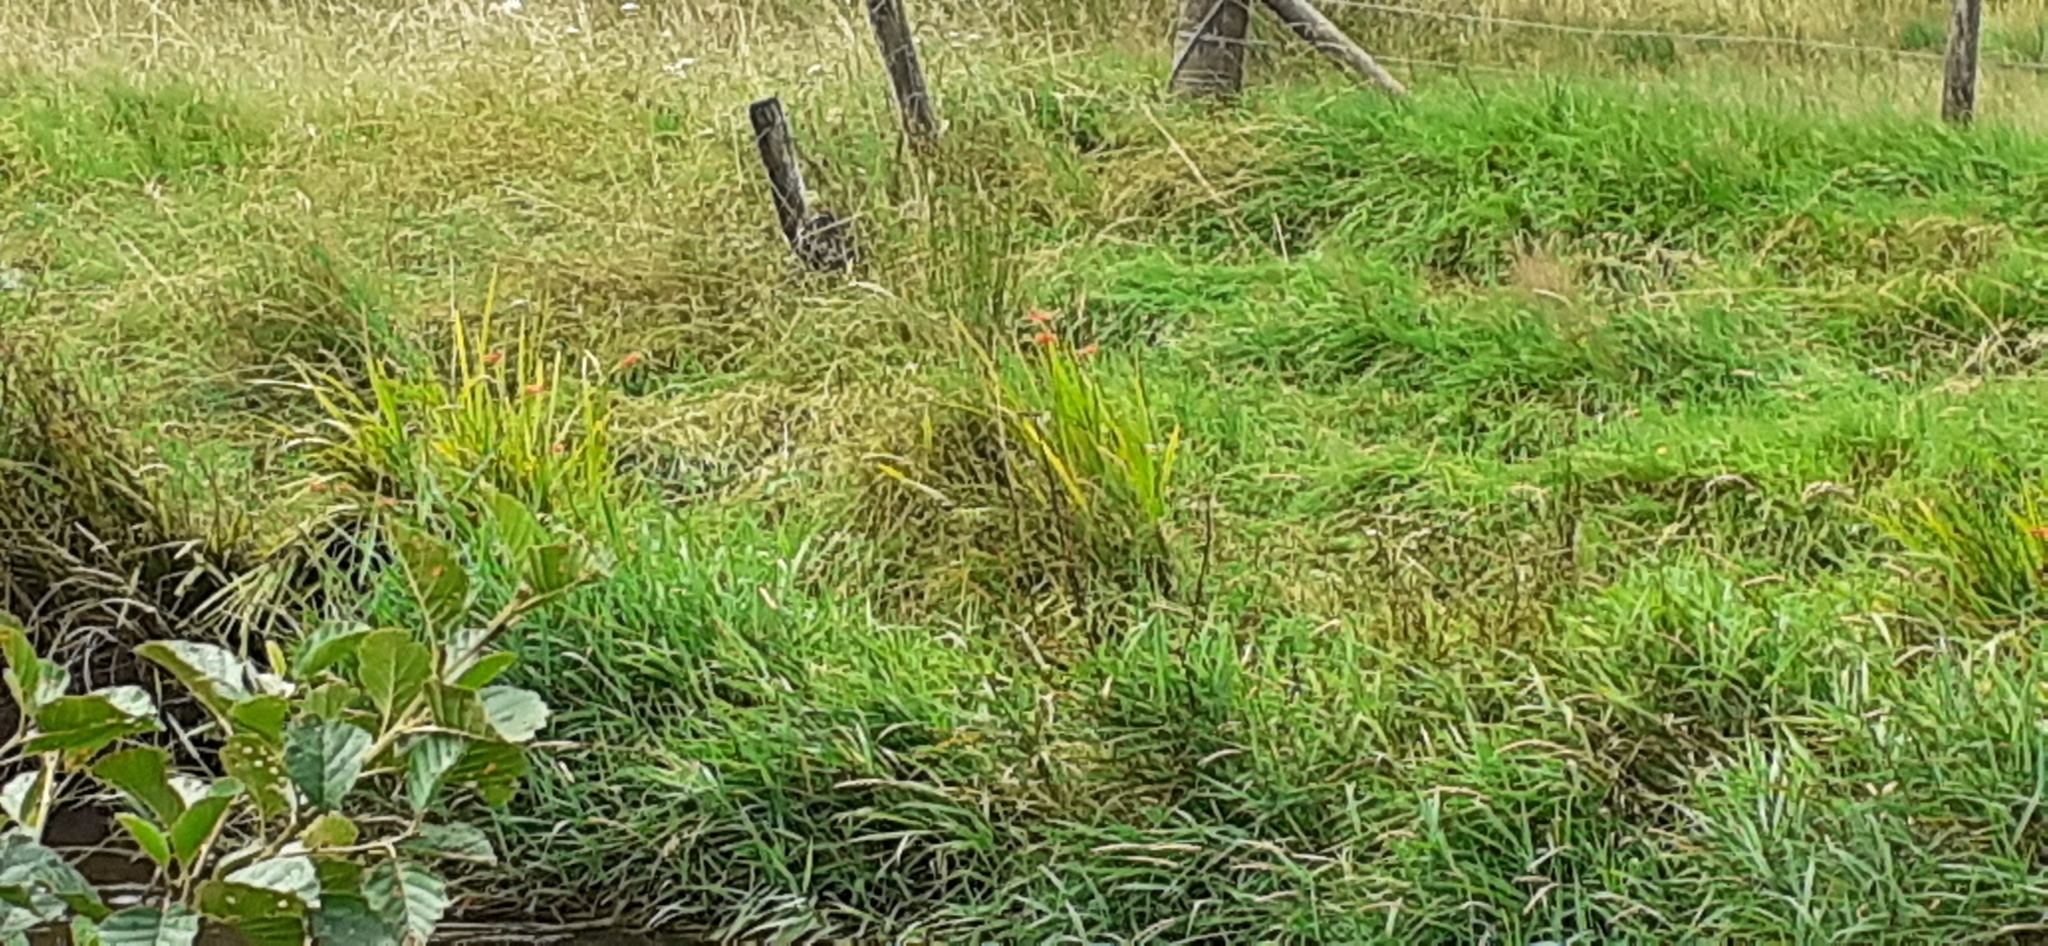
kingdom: Plantae
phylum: Tracheophyta
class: Liliopsida
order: Asparagales
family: Iridaceae
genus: Crocosmia
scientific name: Crocosmia crocosmiiflora
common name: Montbretia
